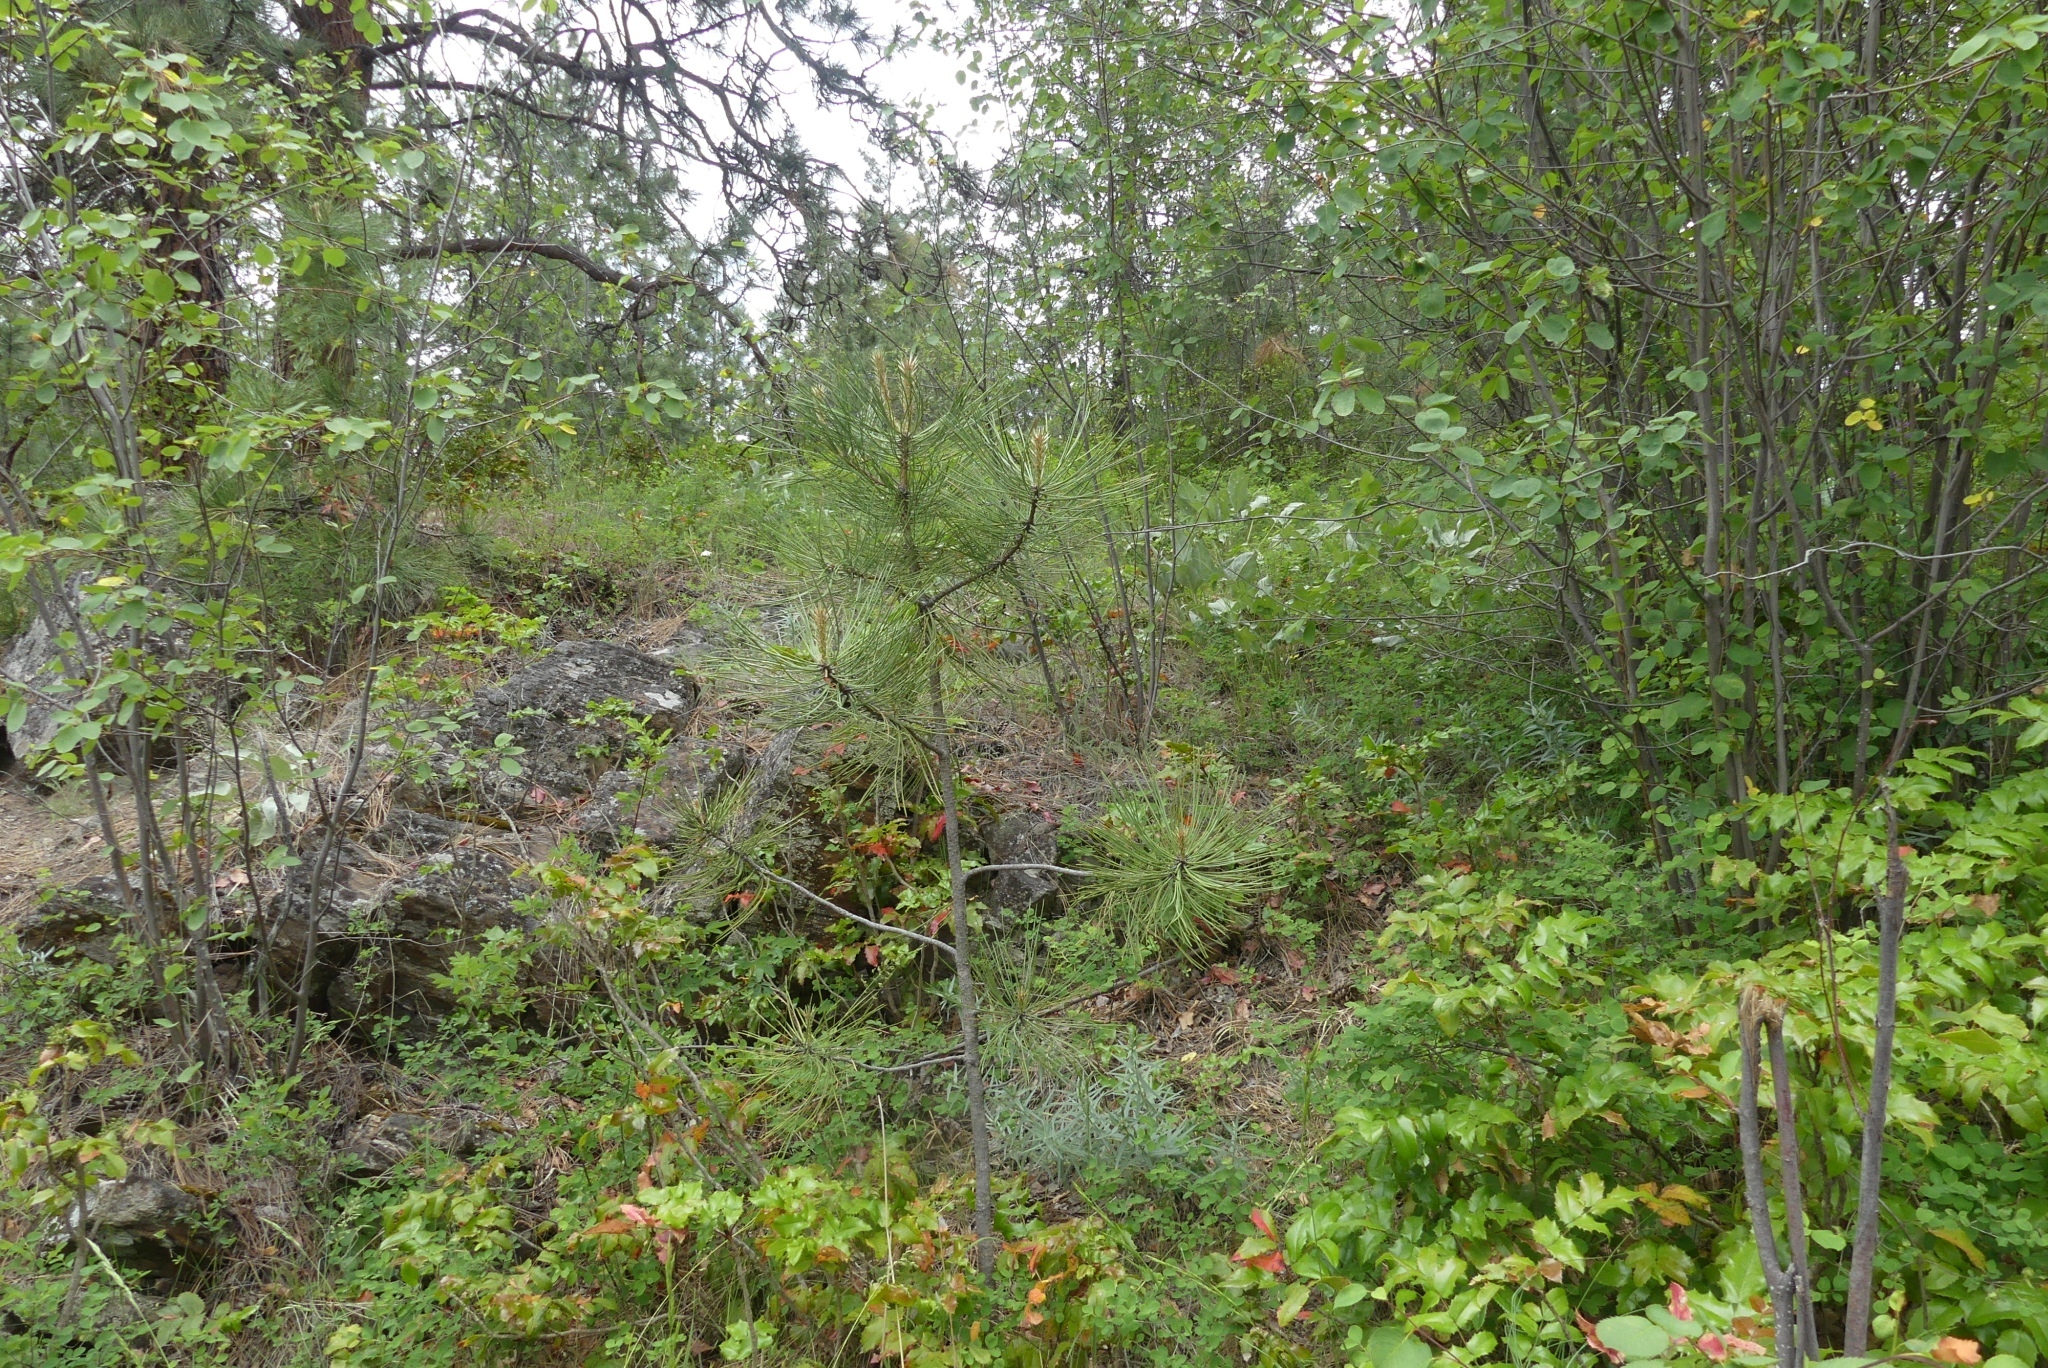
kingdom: Plantae
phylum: Tracheophyta
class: Pinopsida
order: Pinales
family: Pinaceae
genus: Pinus
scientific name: Pinus ponderosa
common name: Western yellow-pine
